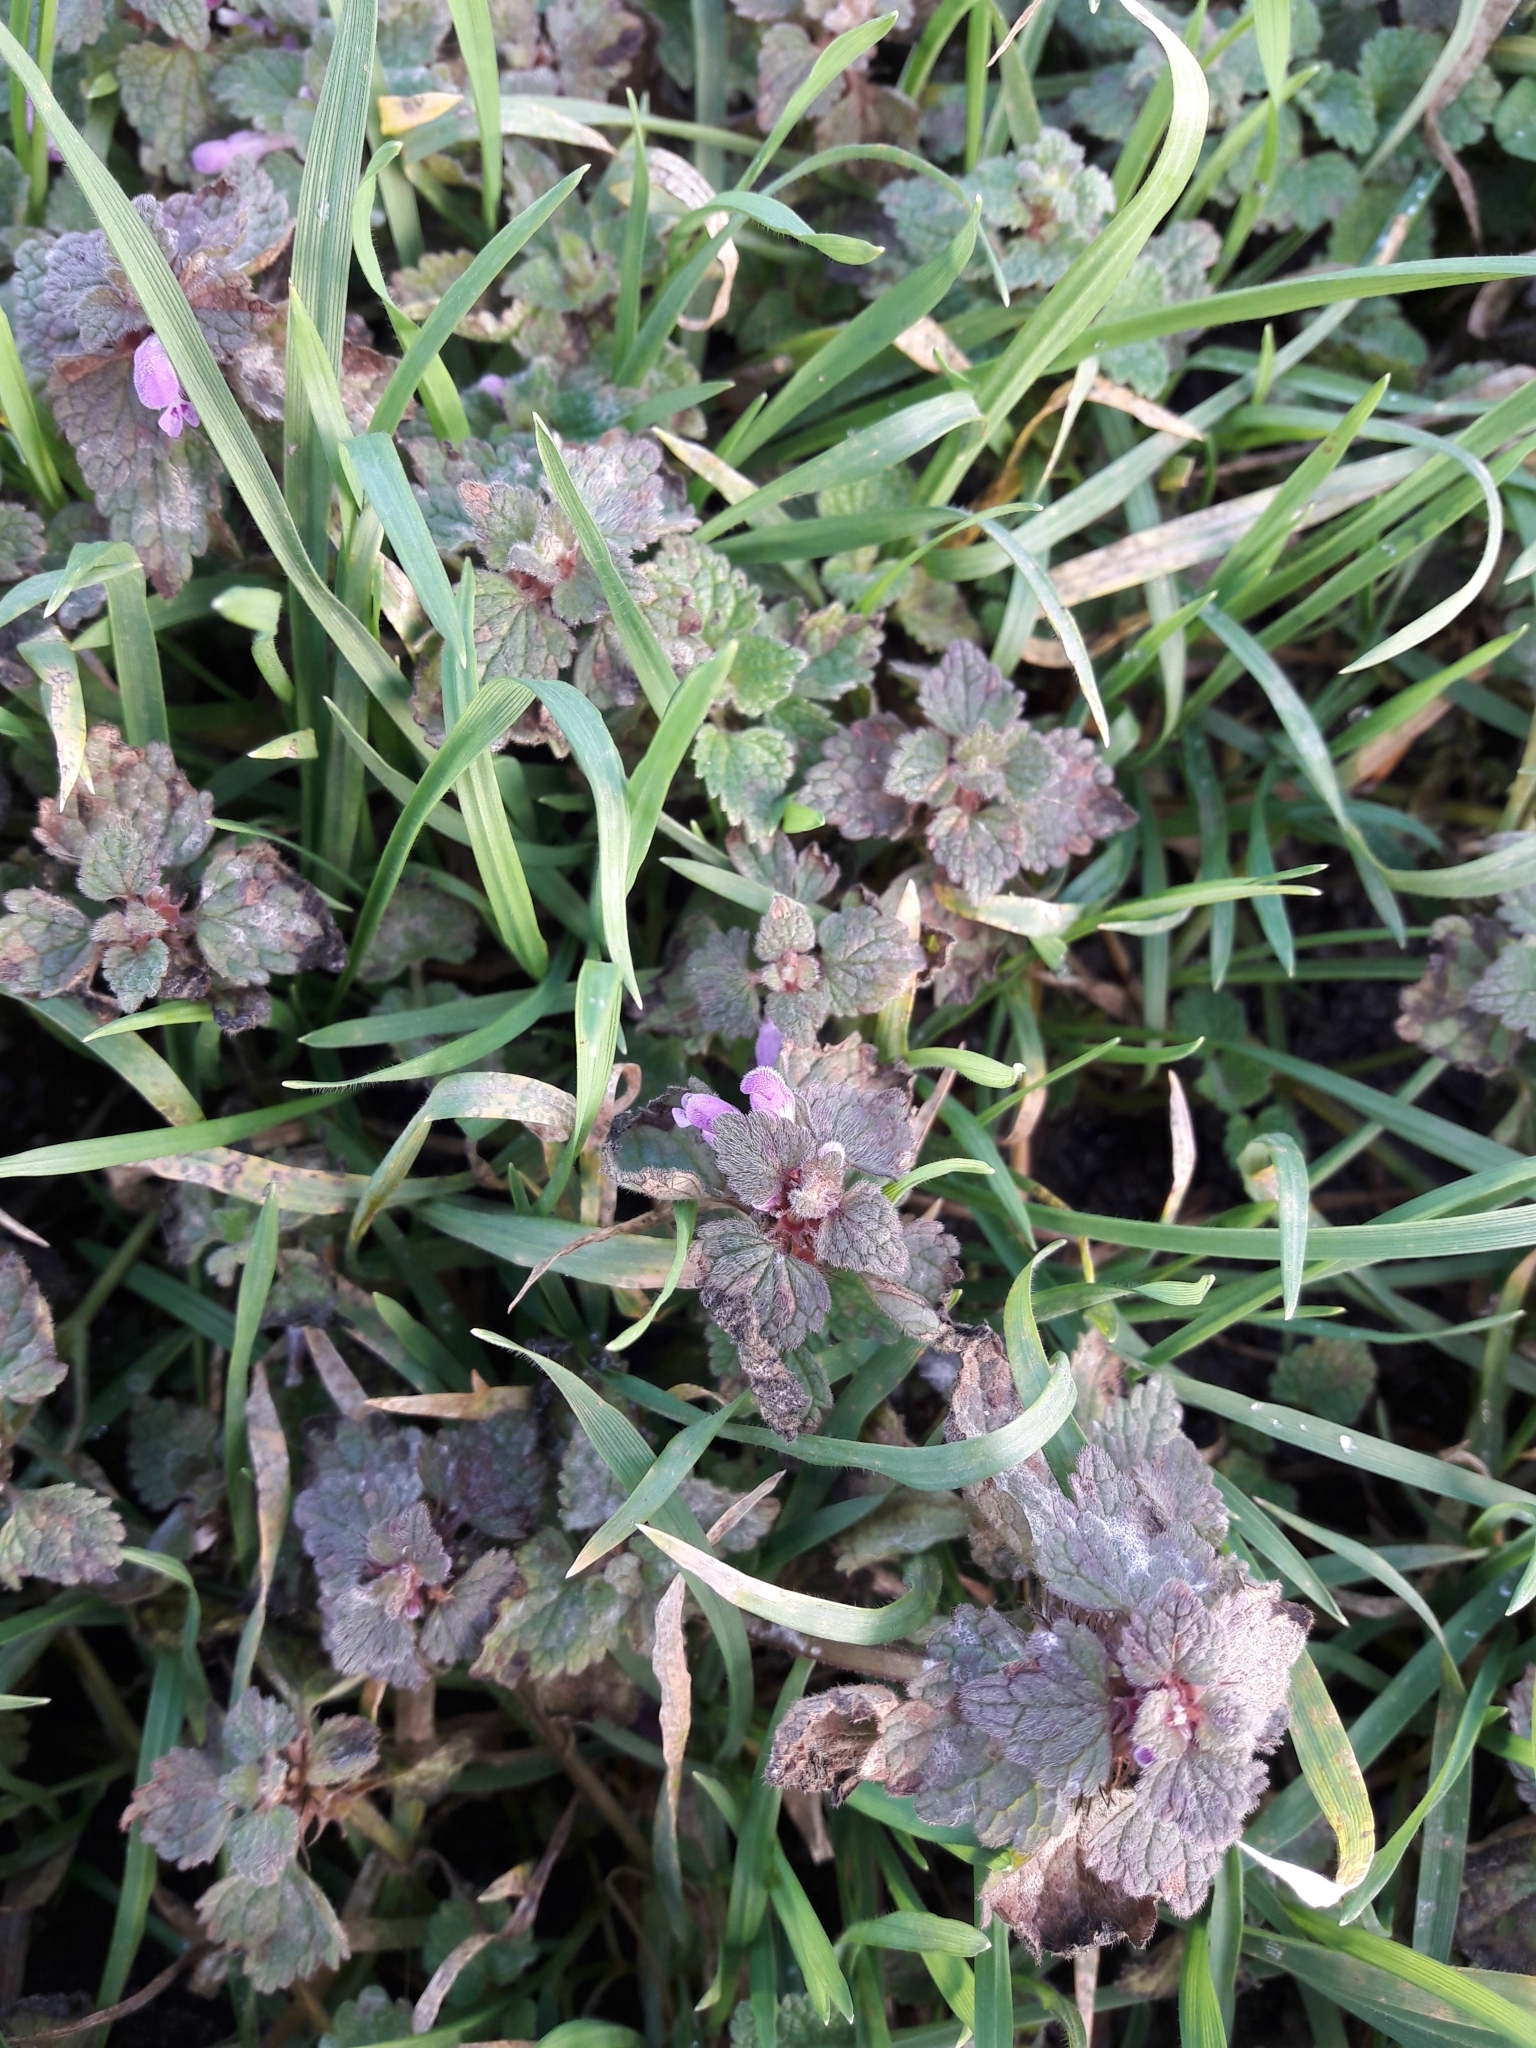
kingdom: Plantae
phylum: Tracheophyta
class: Magnoliopsida
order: Lamiales
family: Lamiaceae
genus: Lamium
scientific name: Lamium purpureum
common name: Red dead-nettle
